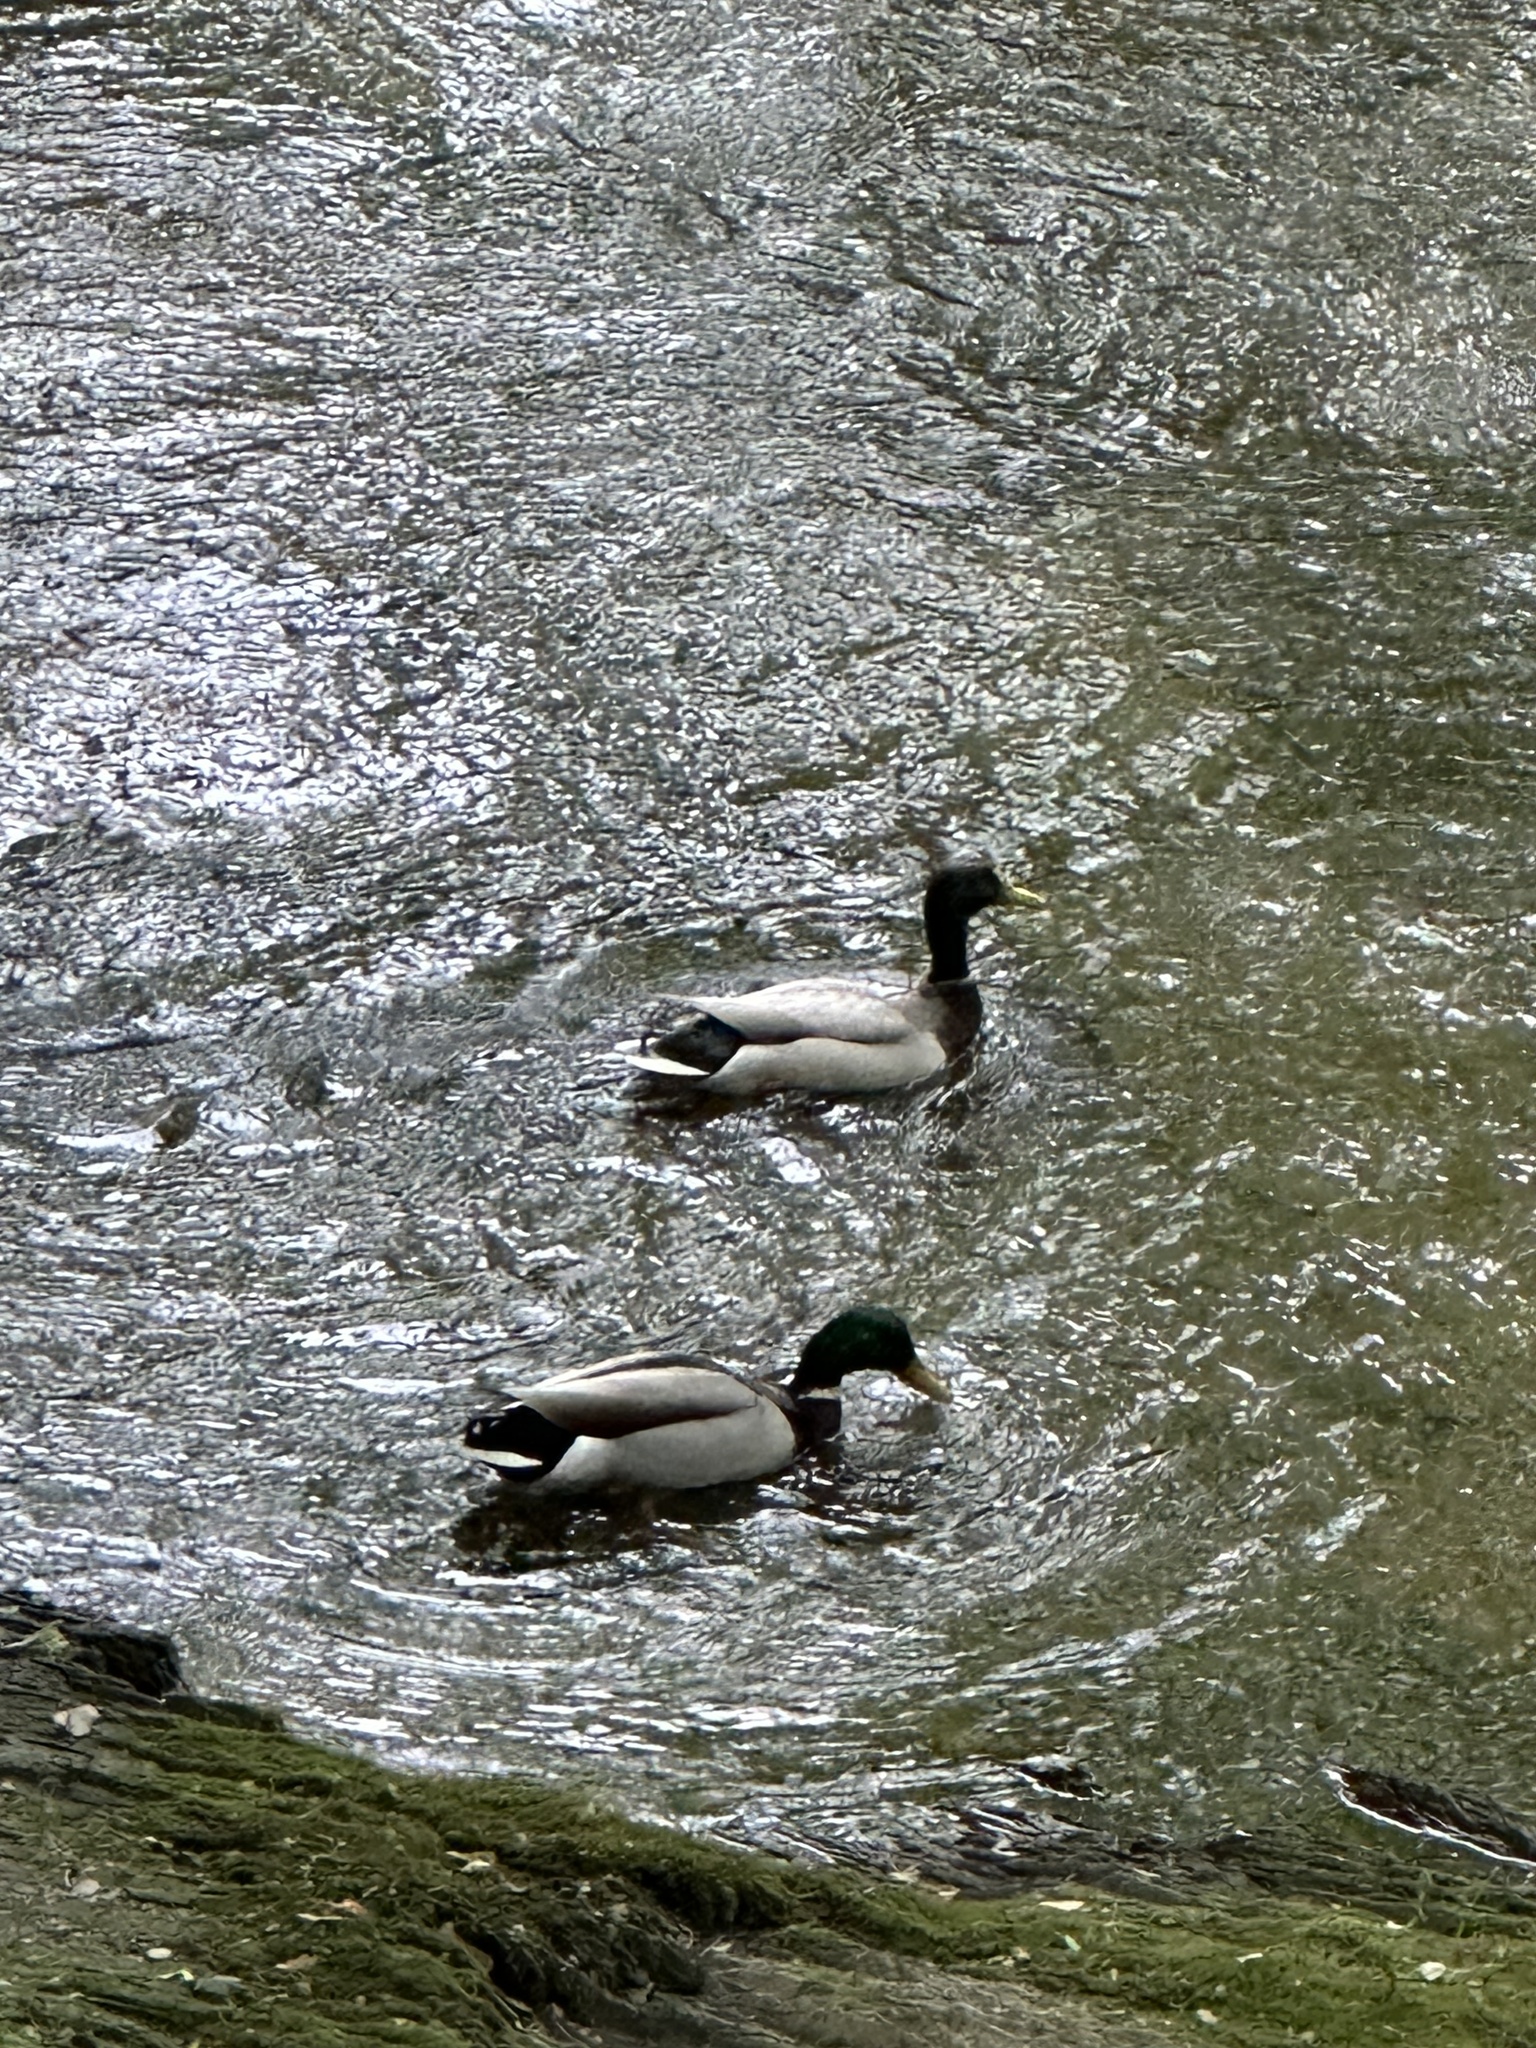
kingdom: Animalia
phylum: Chordata
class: Aves
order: Anseriformes
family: Anatidae
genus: Anas
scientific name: Anas platyrhynchos
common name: Mallard
